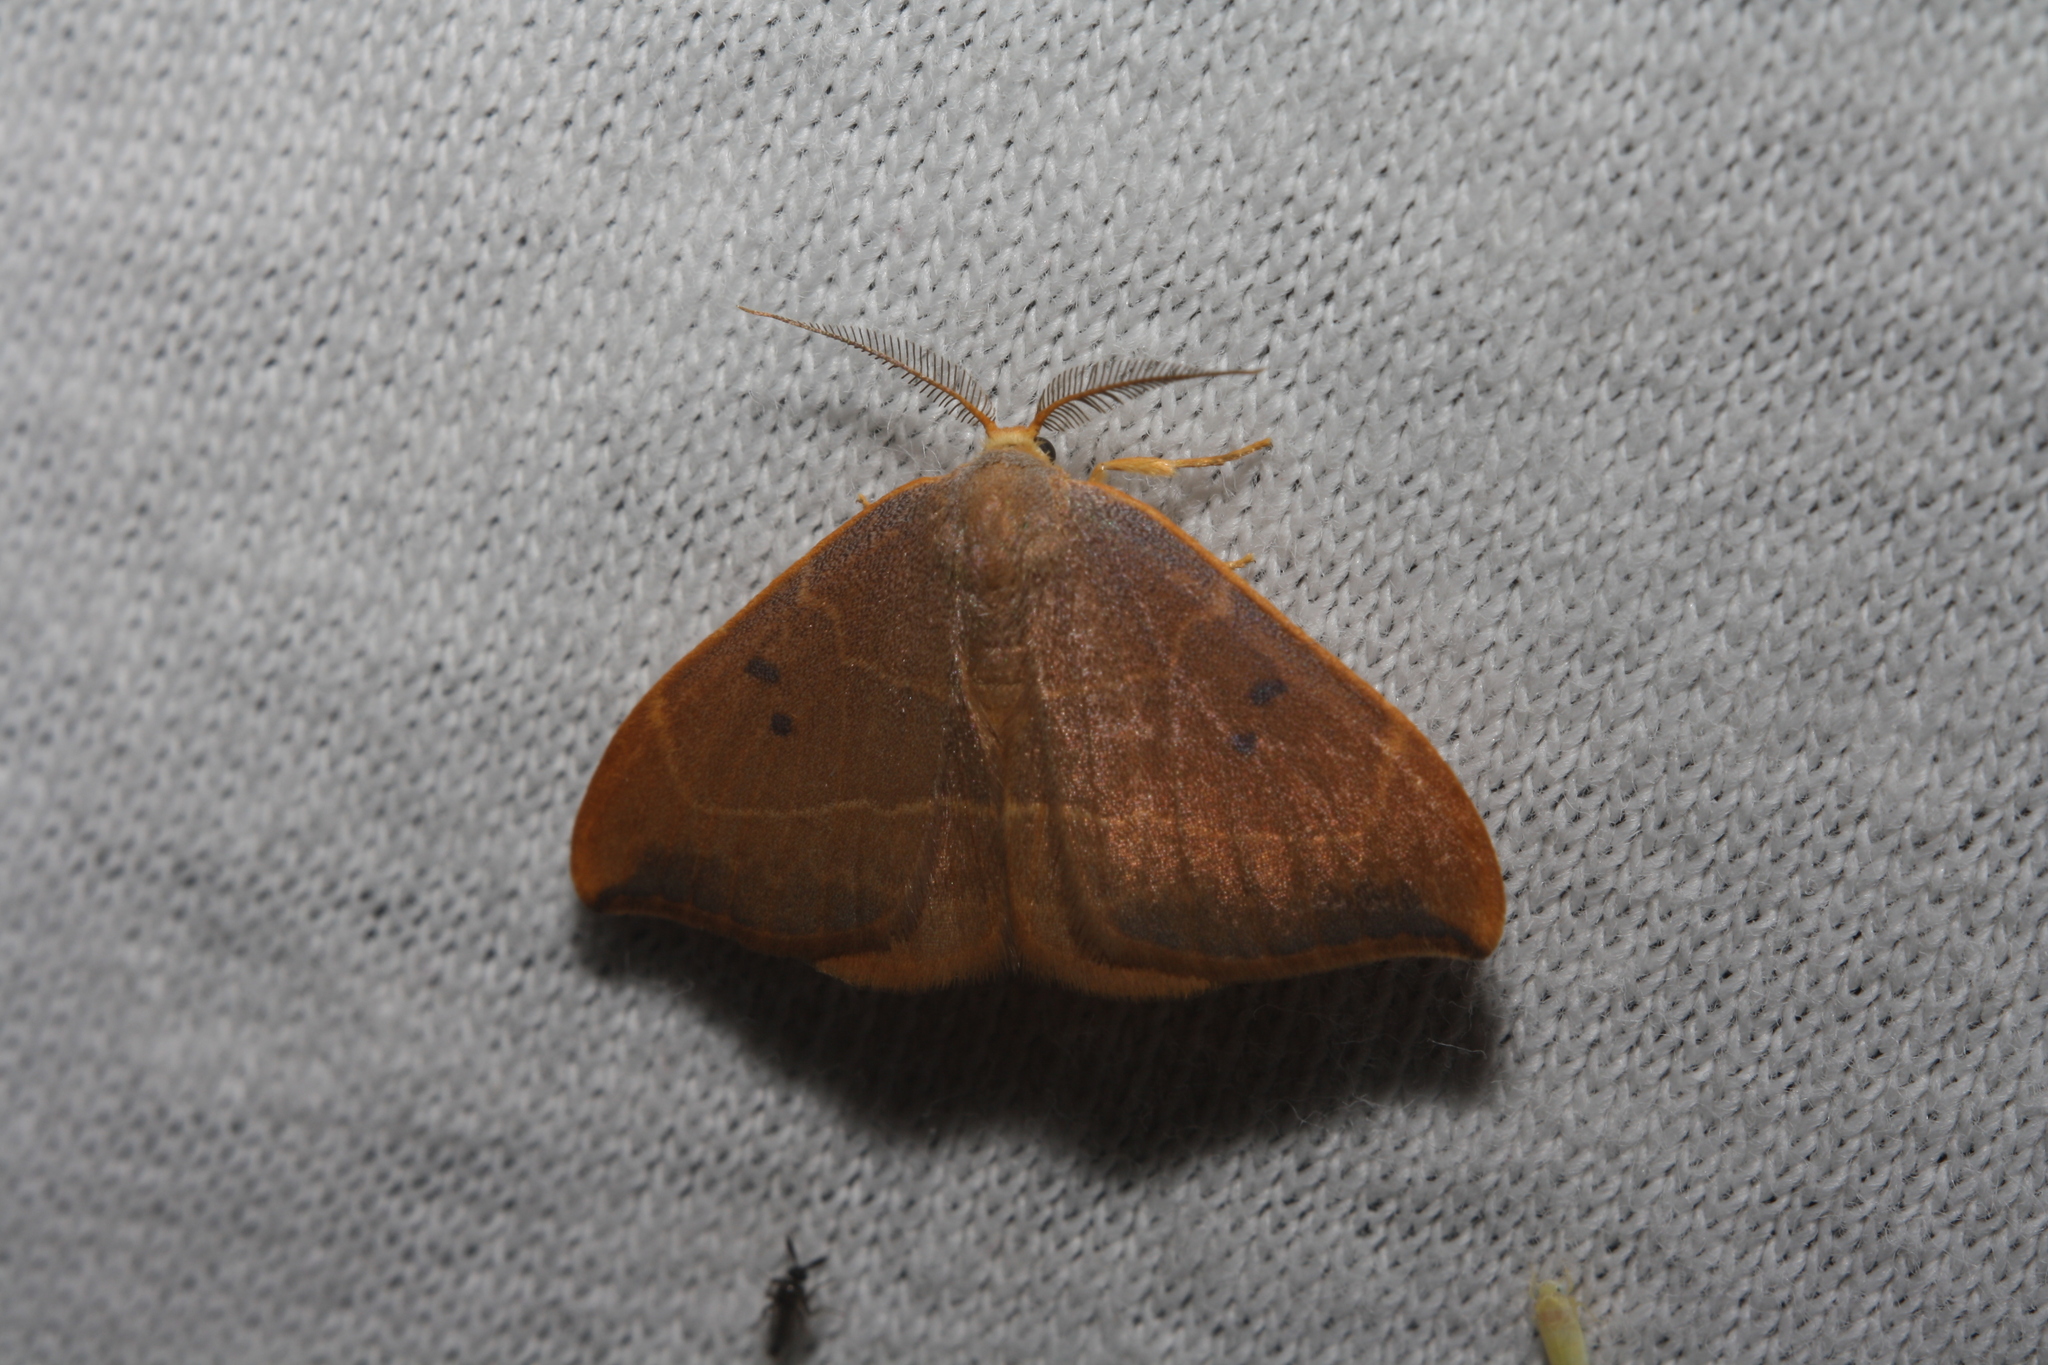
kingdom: Animalia
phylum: Arthropoda
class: Insecta
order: Lepidoptera
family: Drepanidae
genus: Watsonalla
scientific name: Watsonalla binaria
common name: Oak hook-tip
